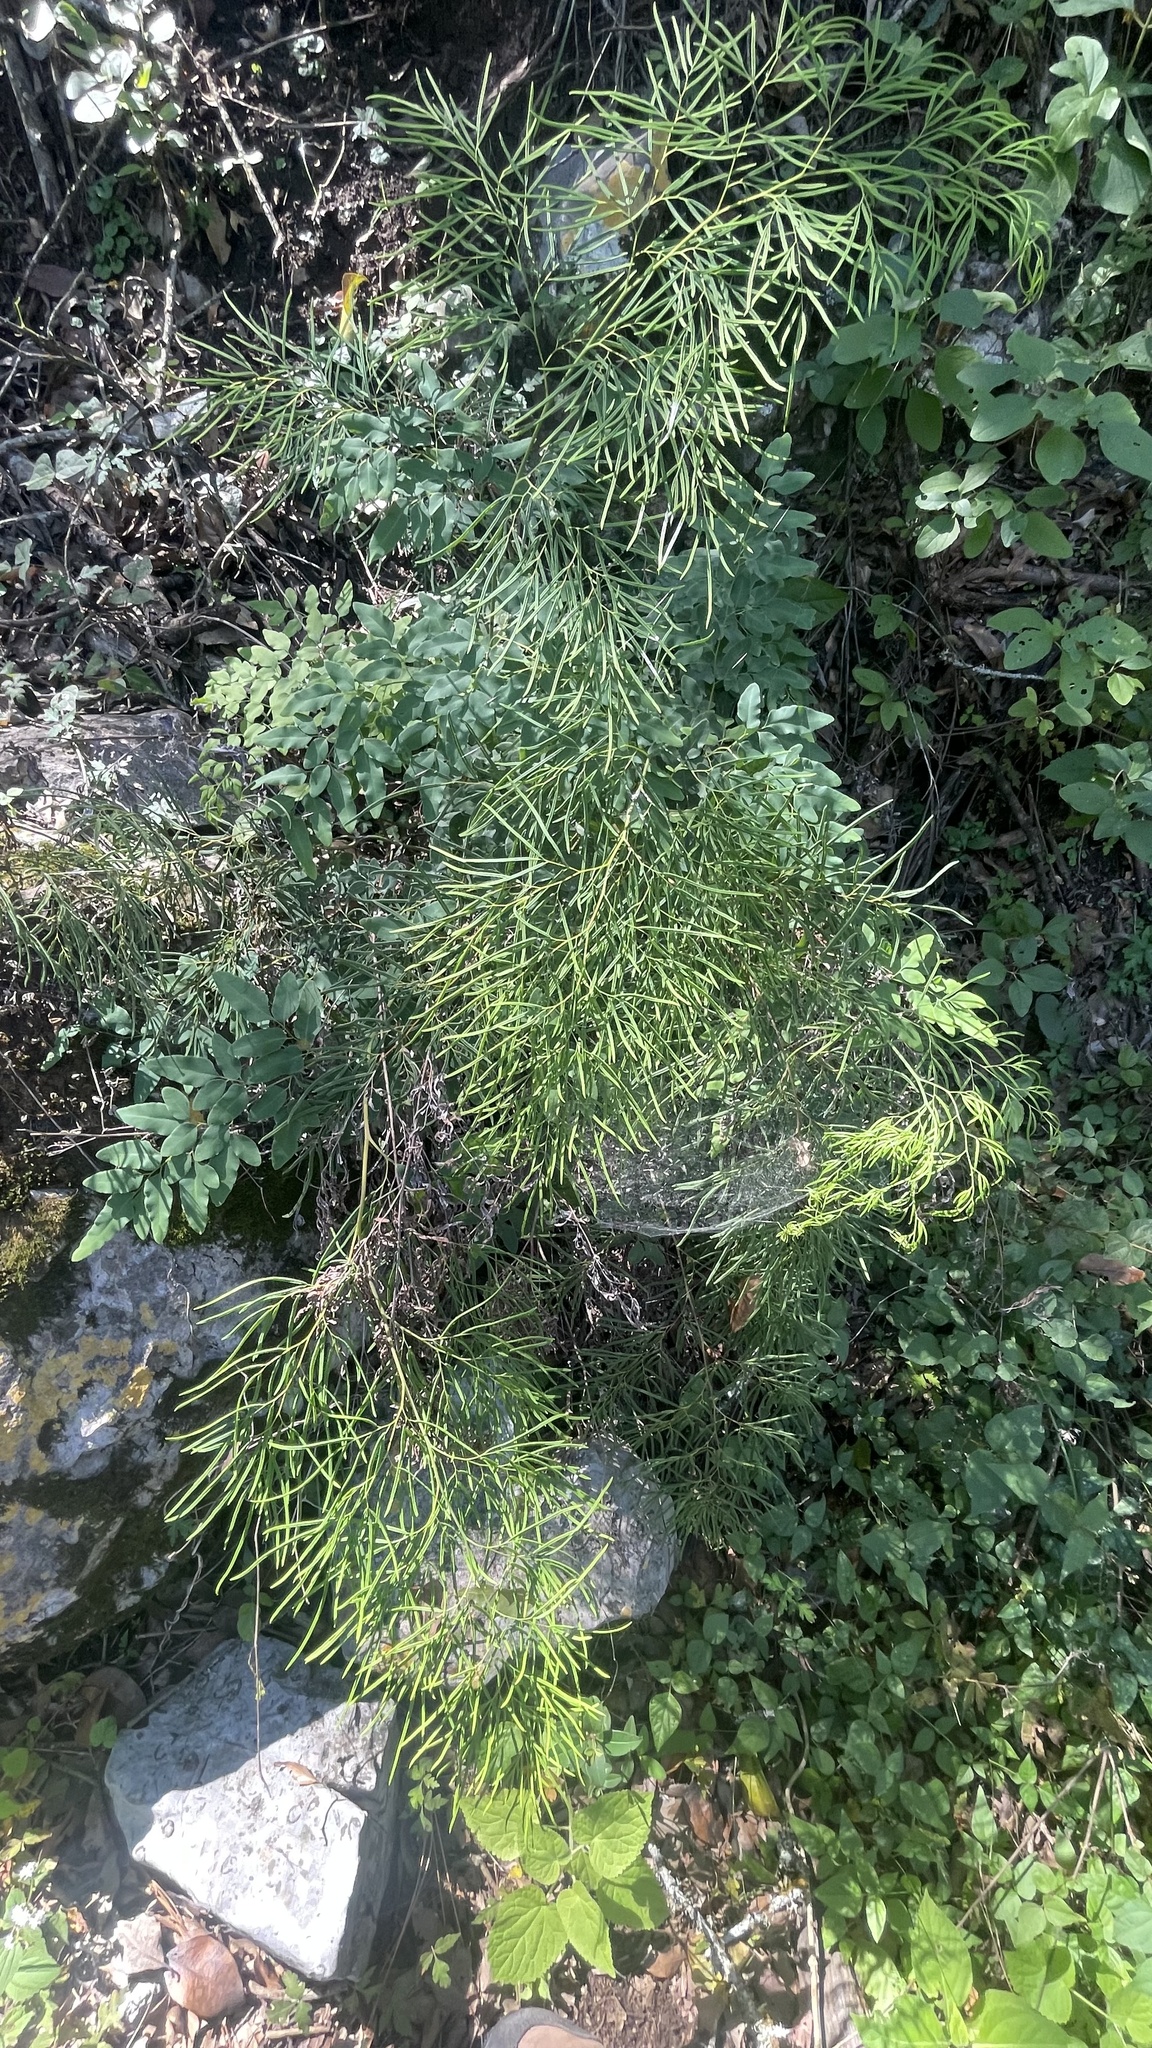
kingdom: Plantae
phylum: Tracheophyta
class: Polypodiopsida
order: Polypodiales
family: Pteridaceae
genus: Llavea
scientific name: Llavea cordifolia
